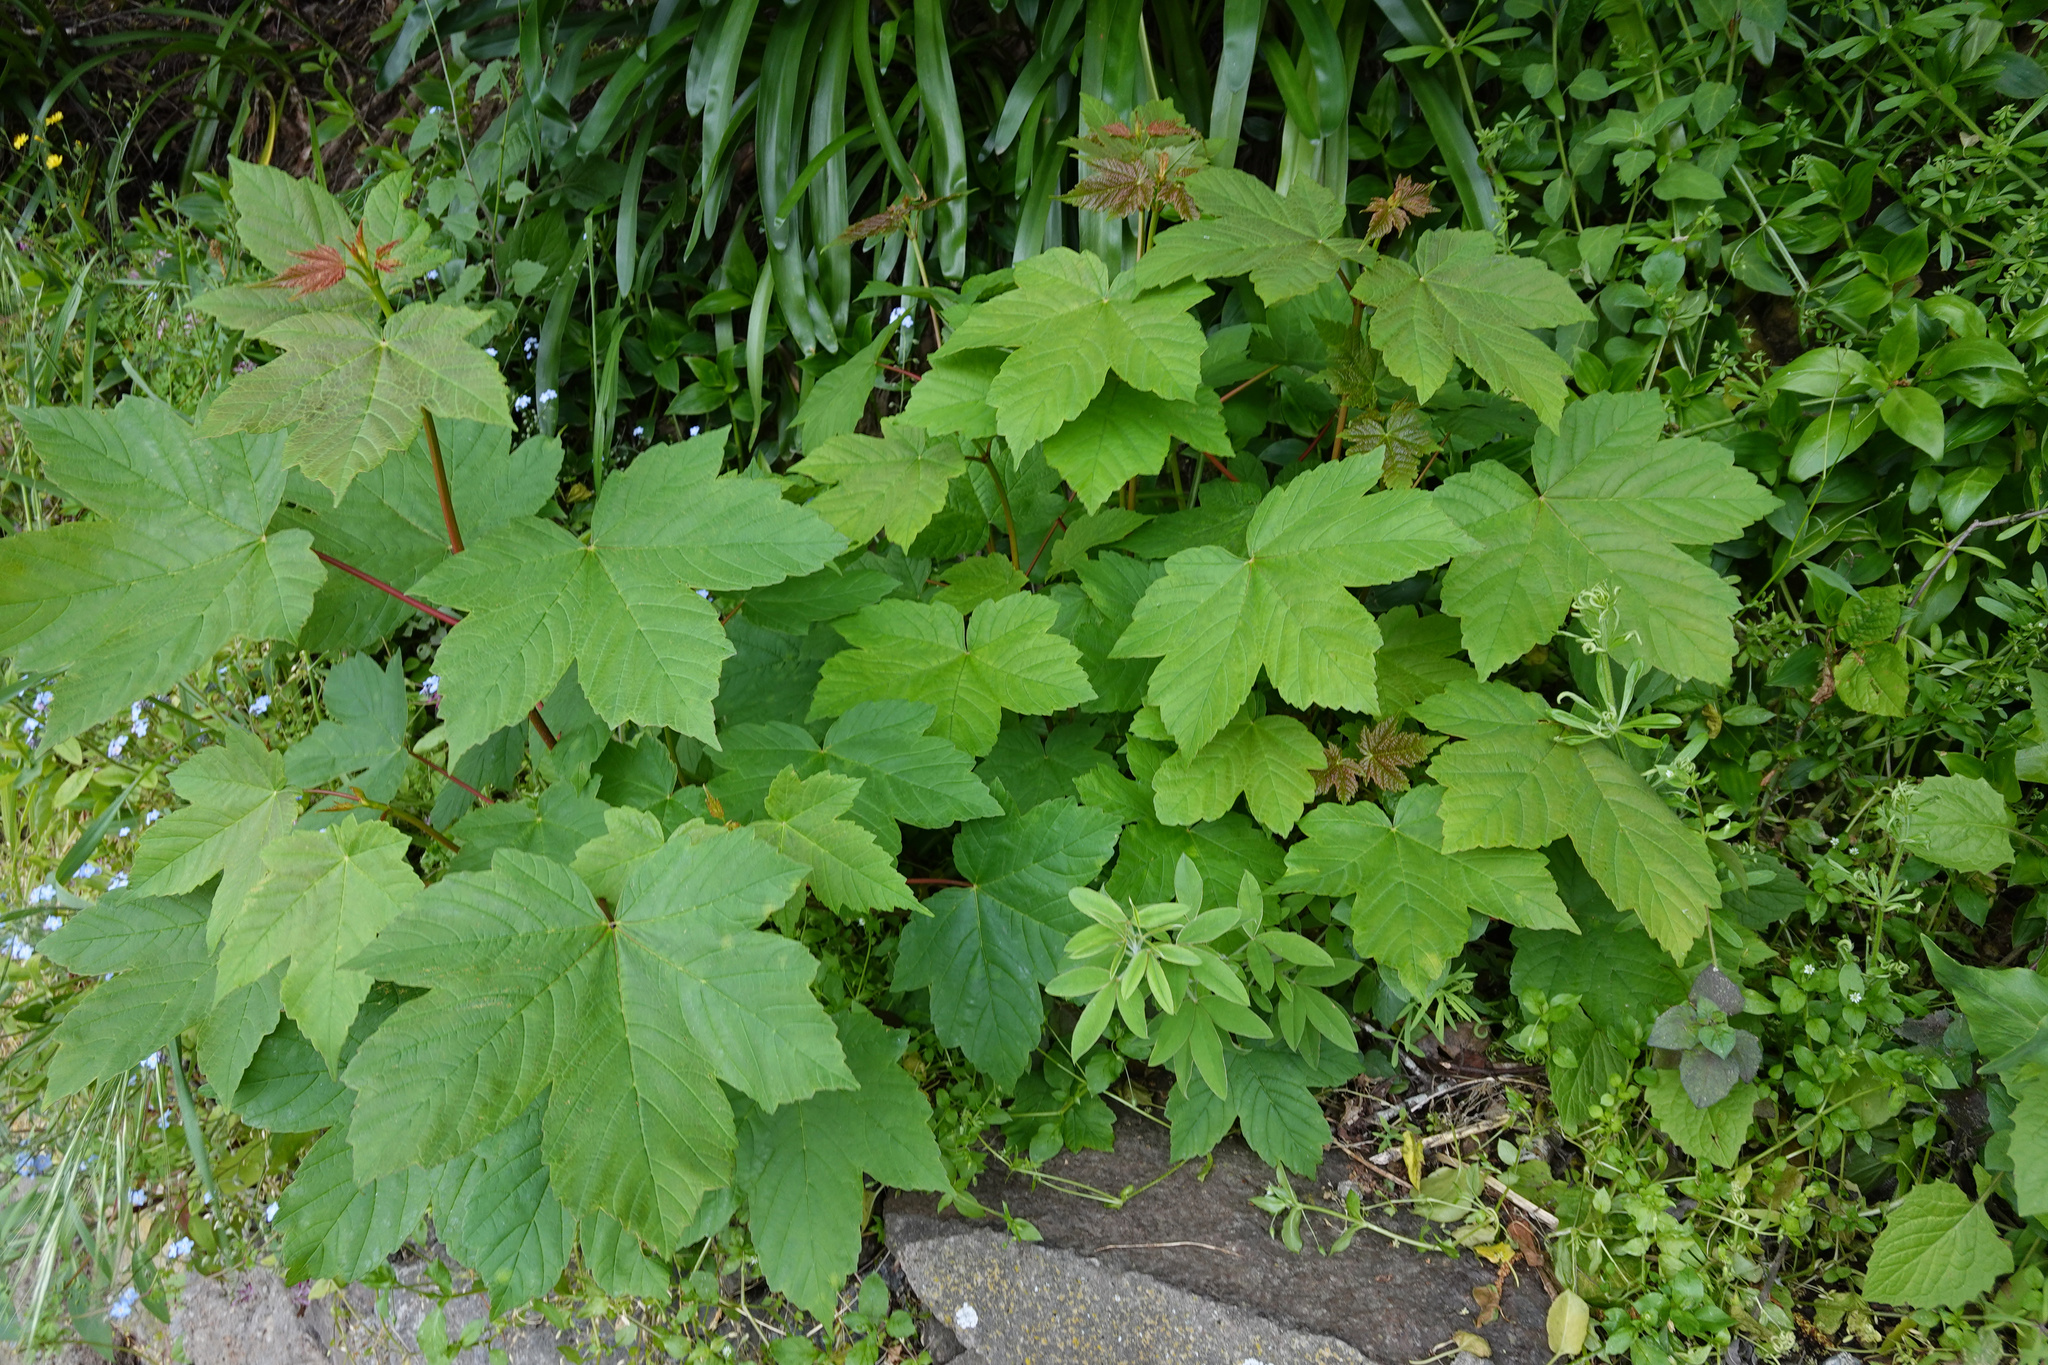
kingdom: Plantae
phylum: Tracheophyta
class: Magnoliopsida
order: Sapindales
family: Sapindaceae
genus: Acer
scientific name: Acer pseudoplatanus
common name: Sycamore
